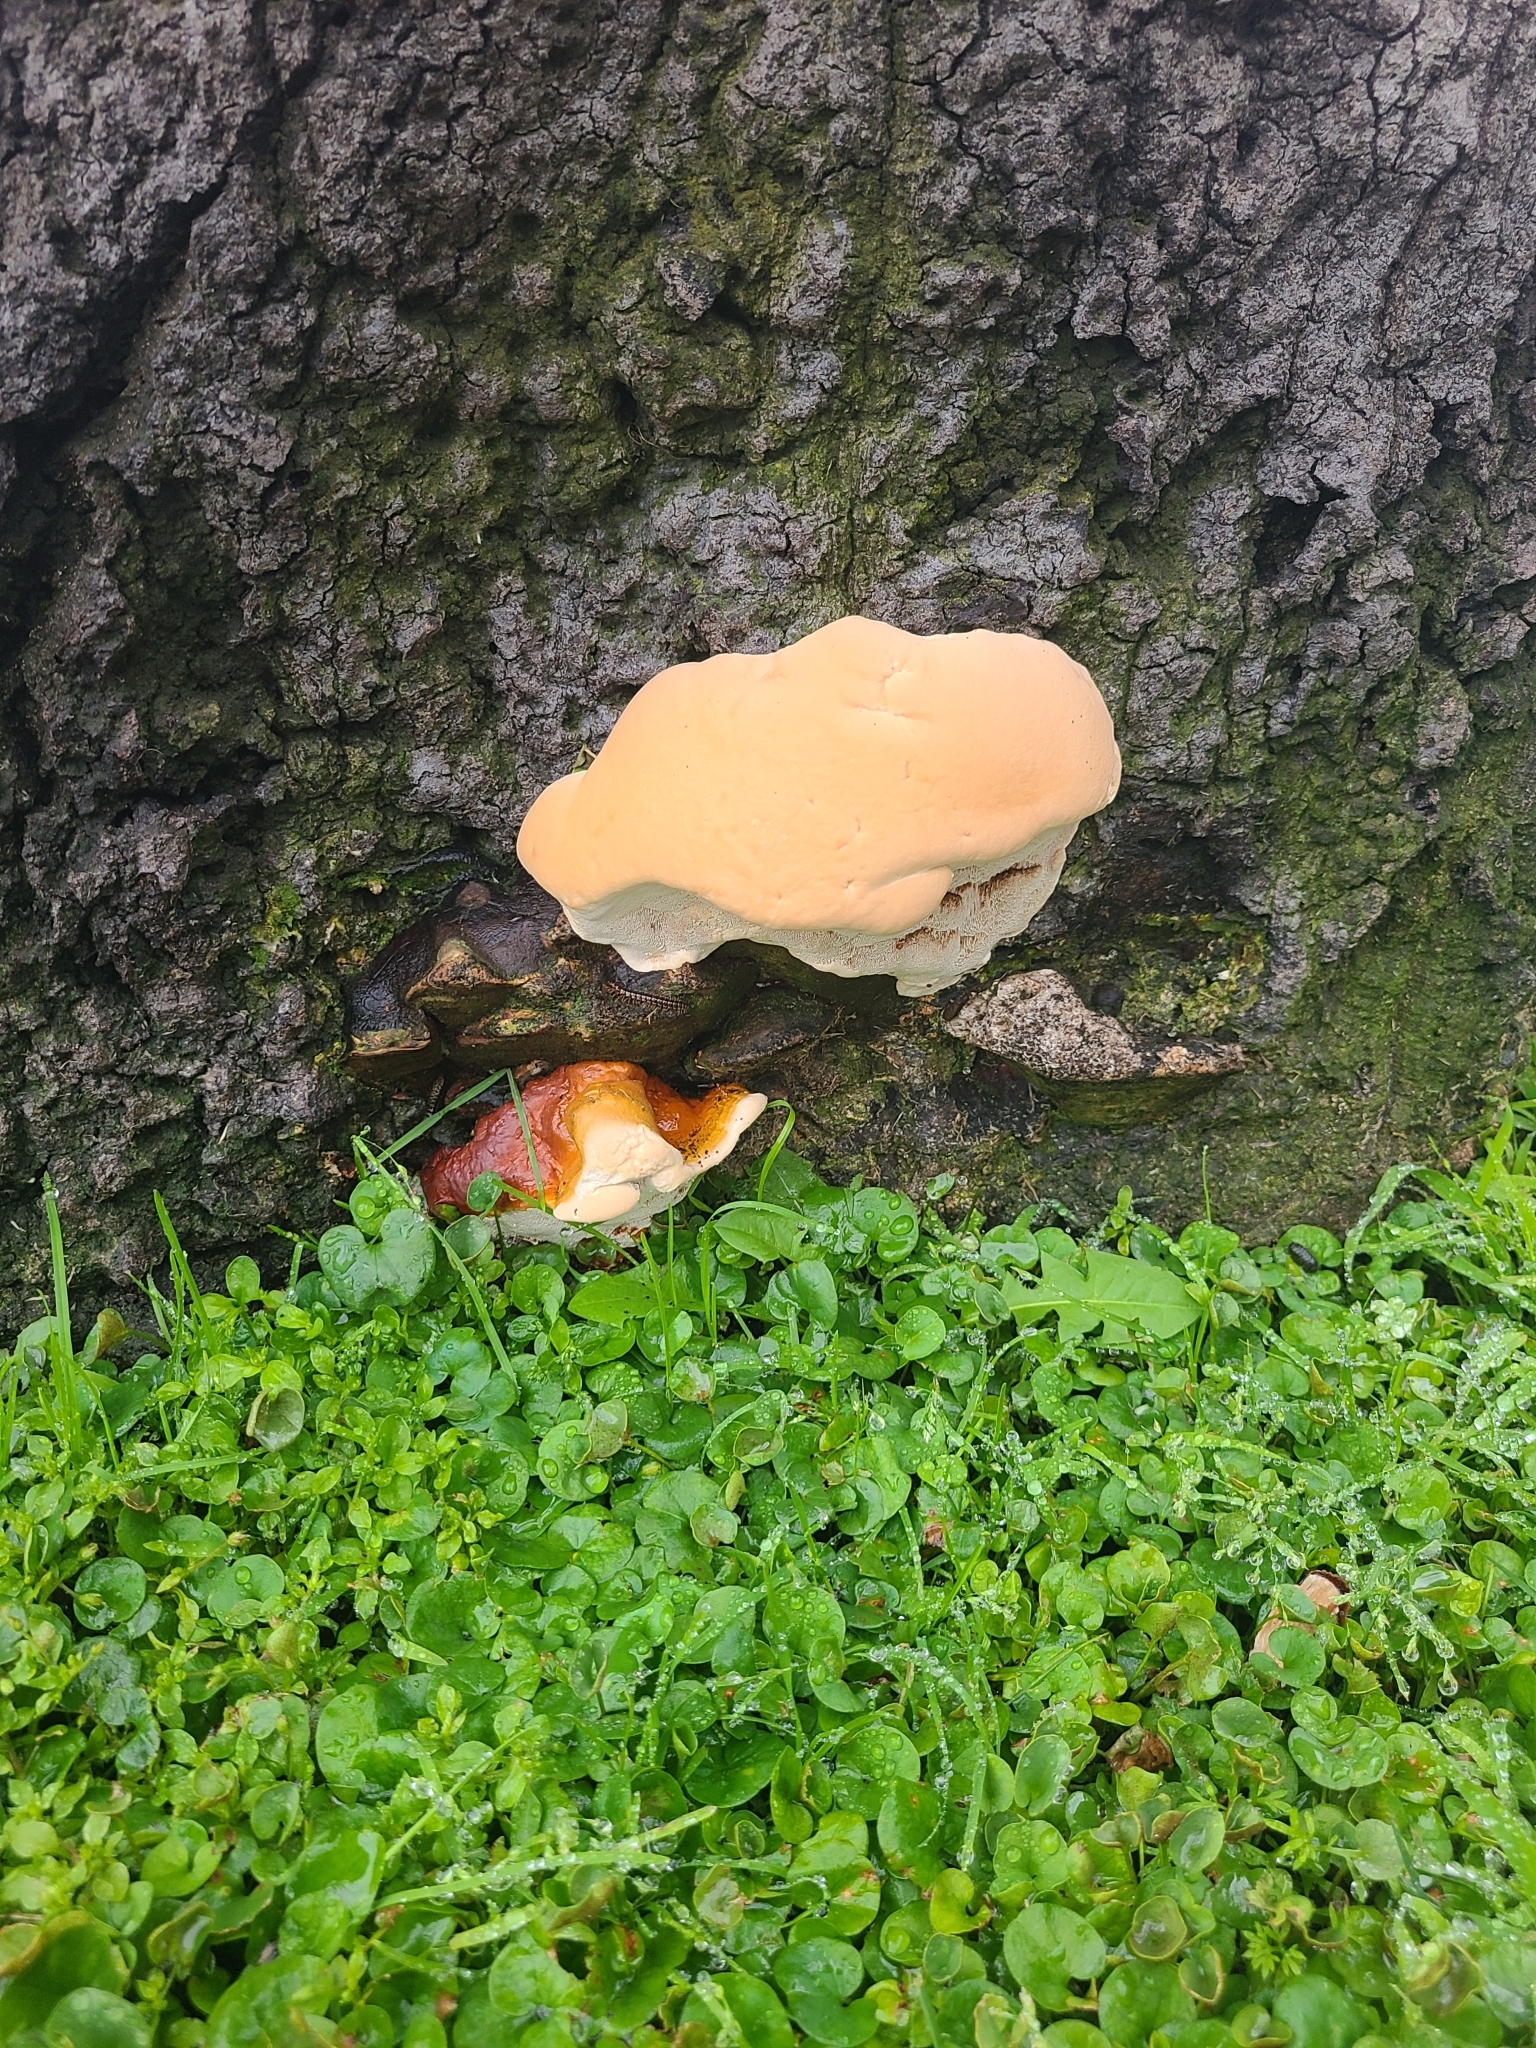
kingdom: Fungi
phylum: Basidiomycota
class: Agaricomycetes
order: Polyporales
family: Polyporaceae
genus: Ganoderma
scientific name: Ganoderma polychromum
